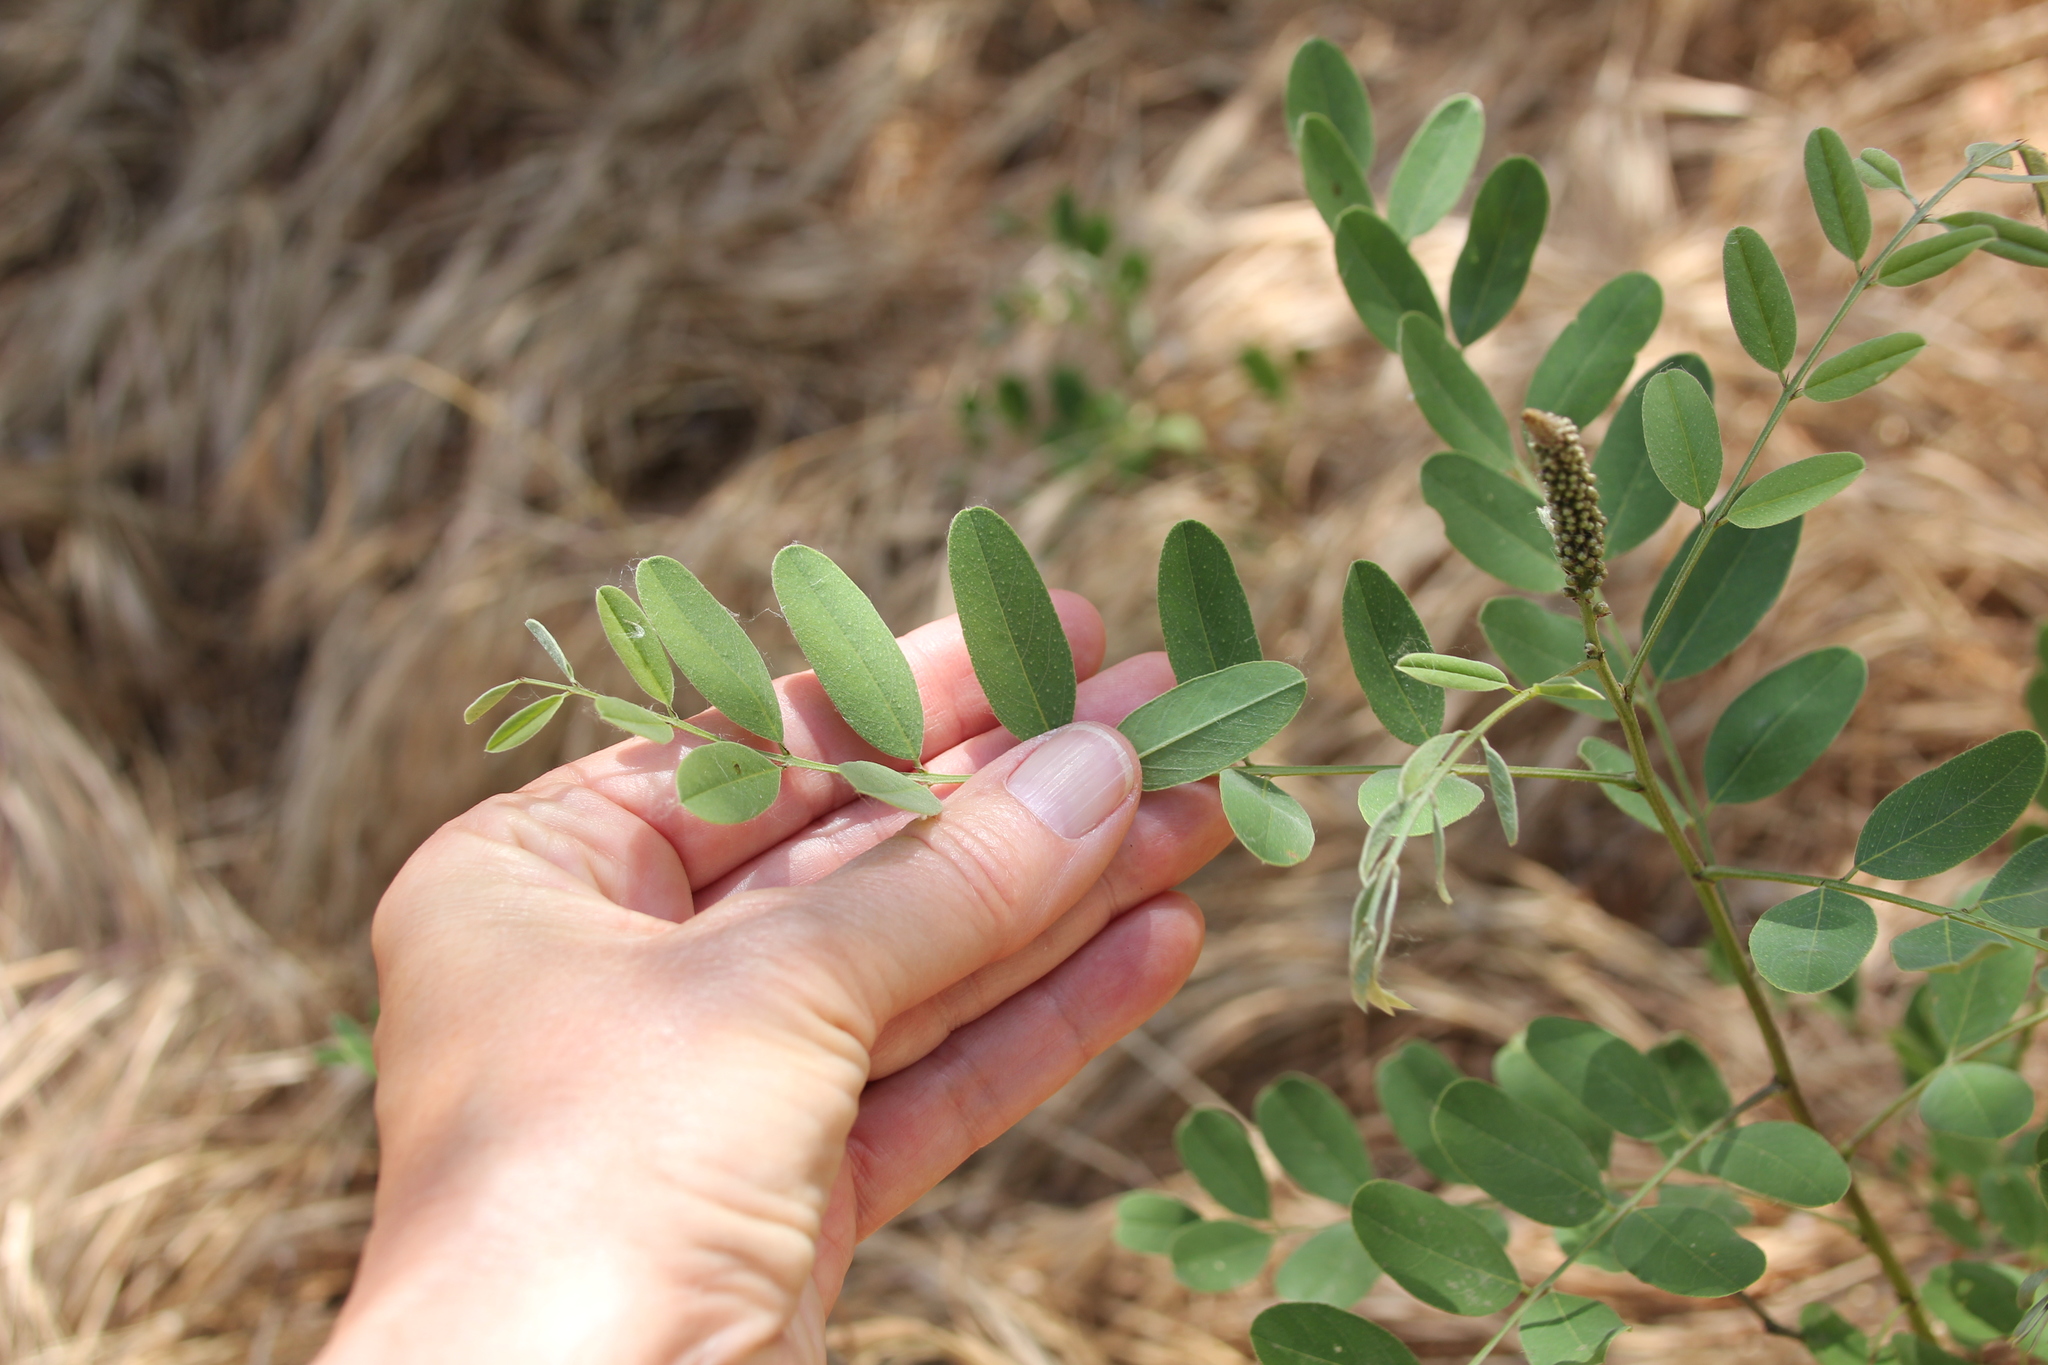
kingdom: Plantae
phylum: Tracheophyta
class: Magnoliopsida
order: Fabales
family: Fabaceae
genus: Amorpha
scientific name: Amorpha fruticosa
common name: False indigo
